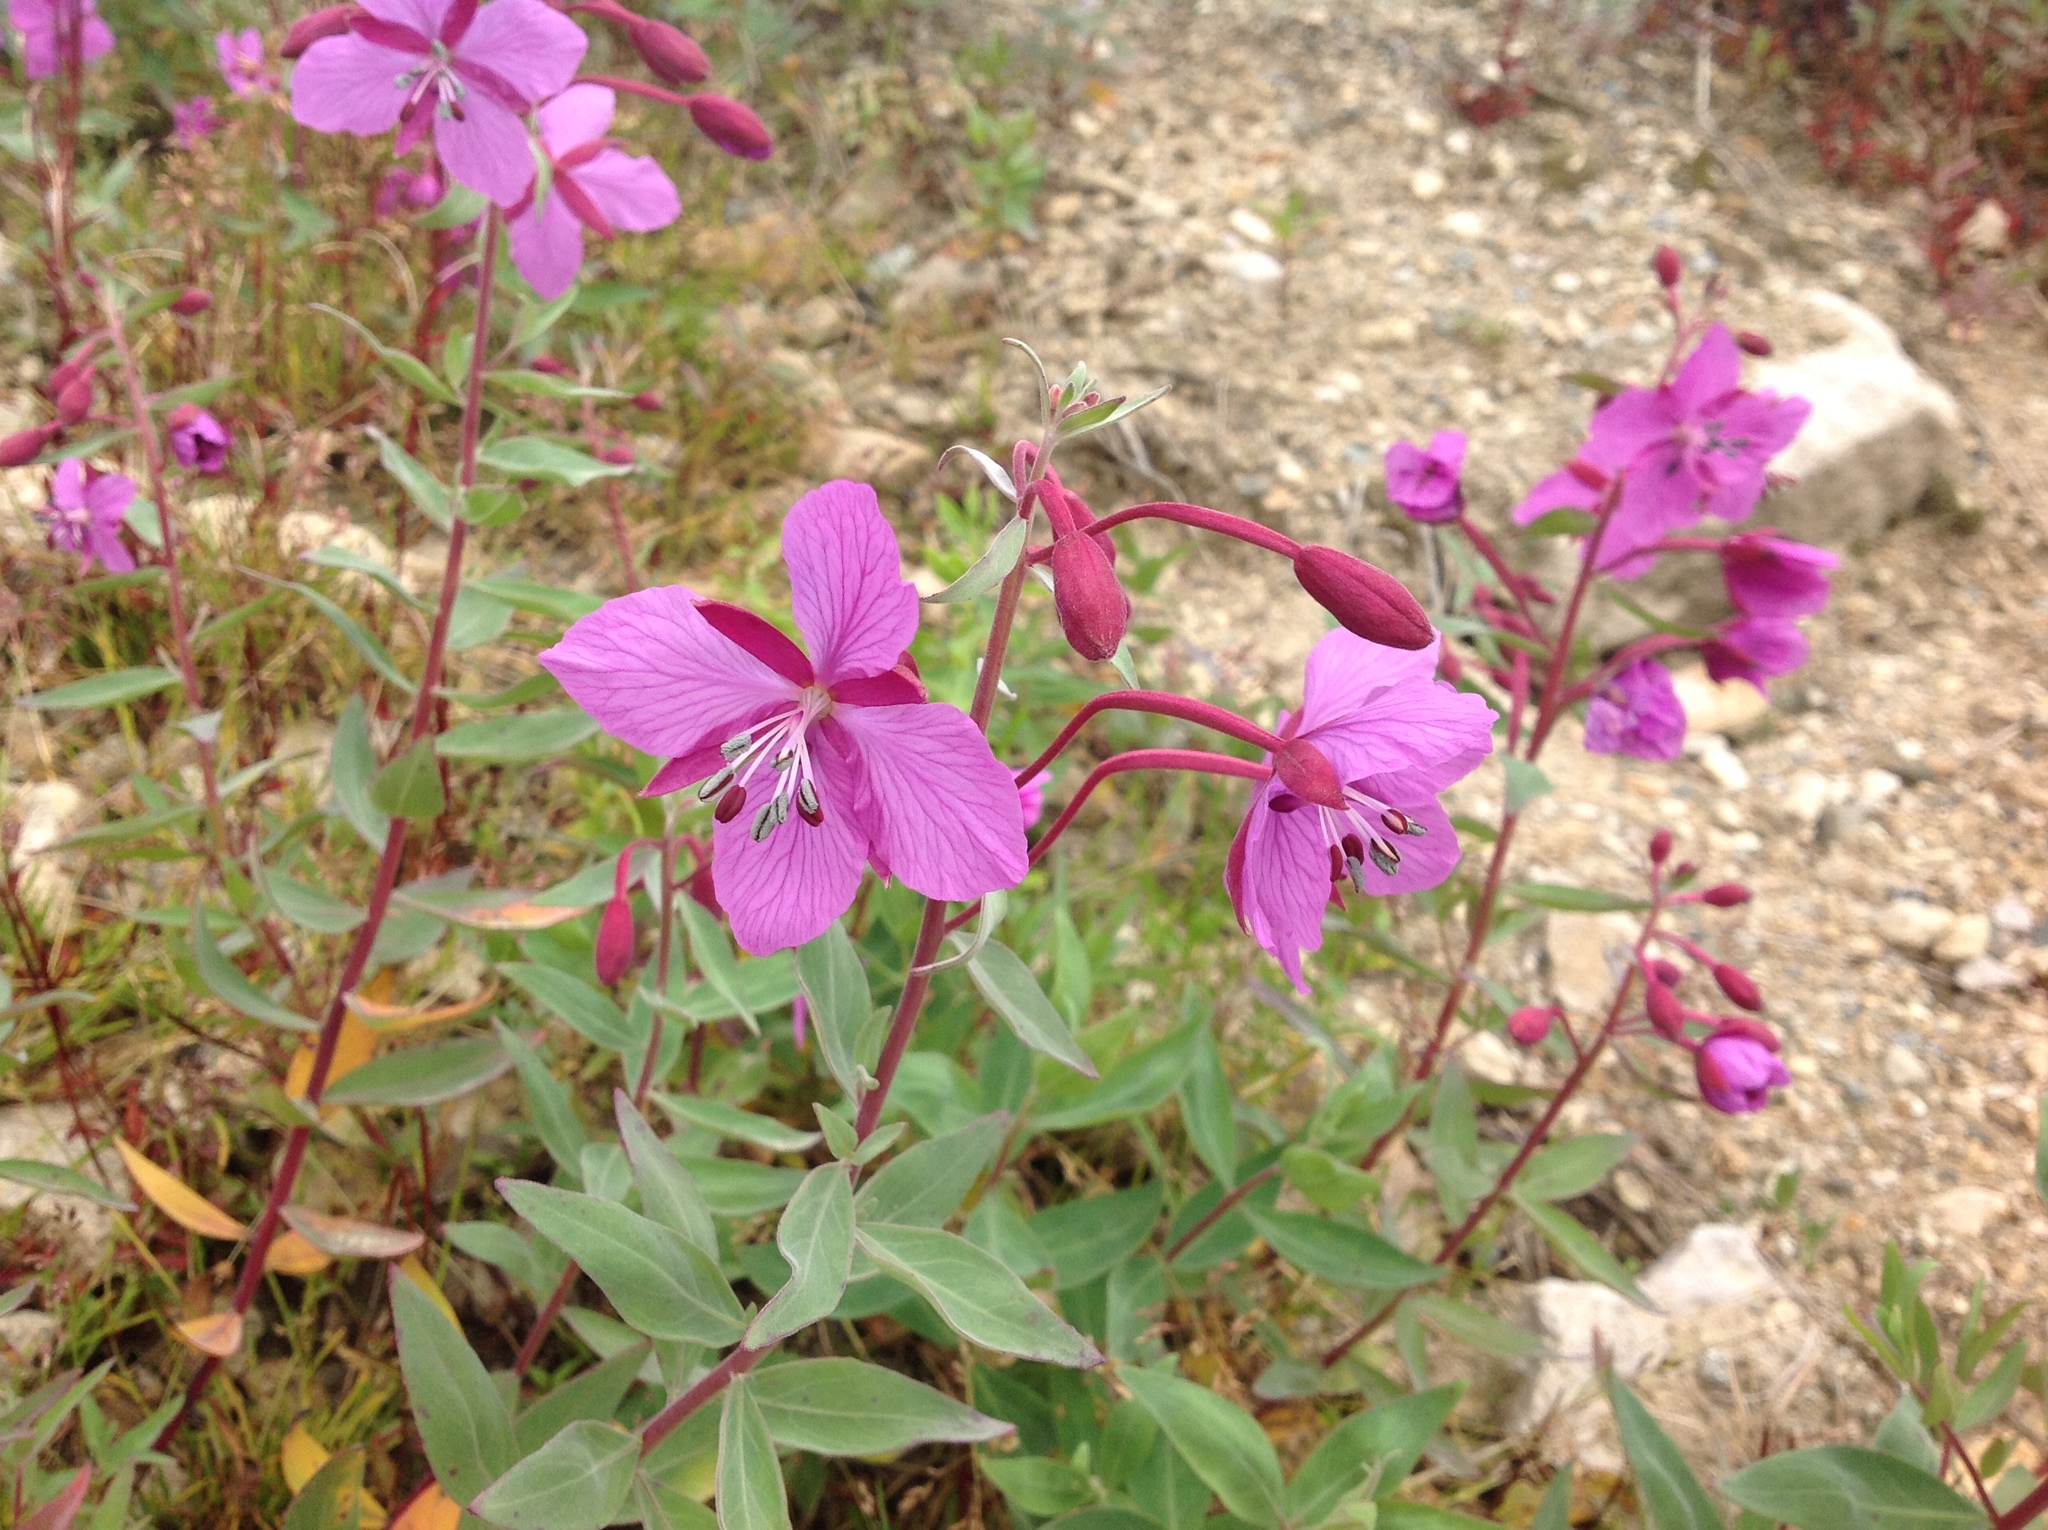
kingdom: Plantae
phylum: Tracheophyta
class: Magnoliopsida
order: Myrtales
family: Onagraceae
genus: Chamaenerion
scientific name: Chamaenerion latifolium
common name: Dwarf fireweed
